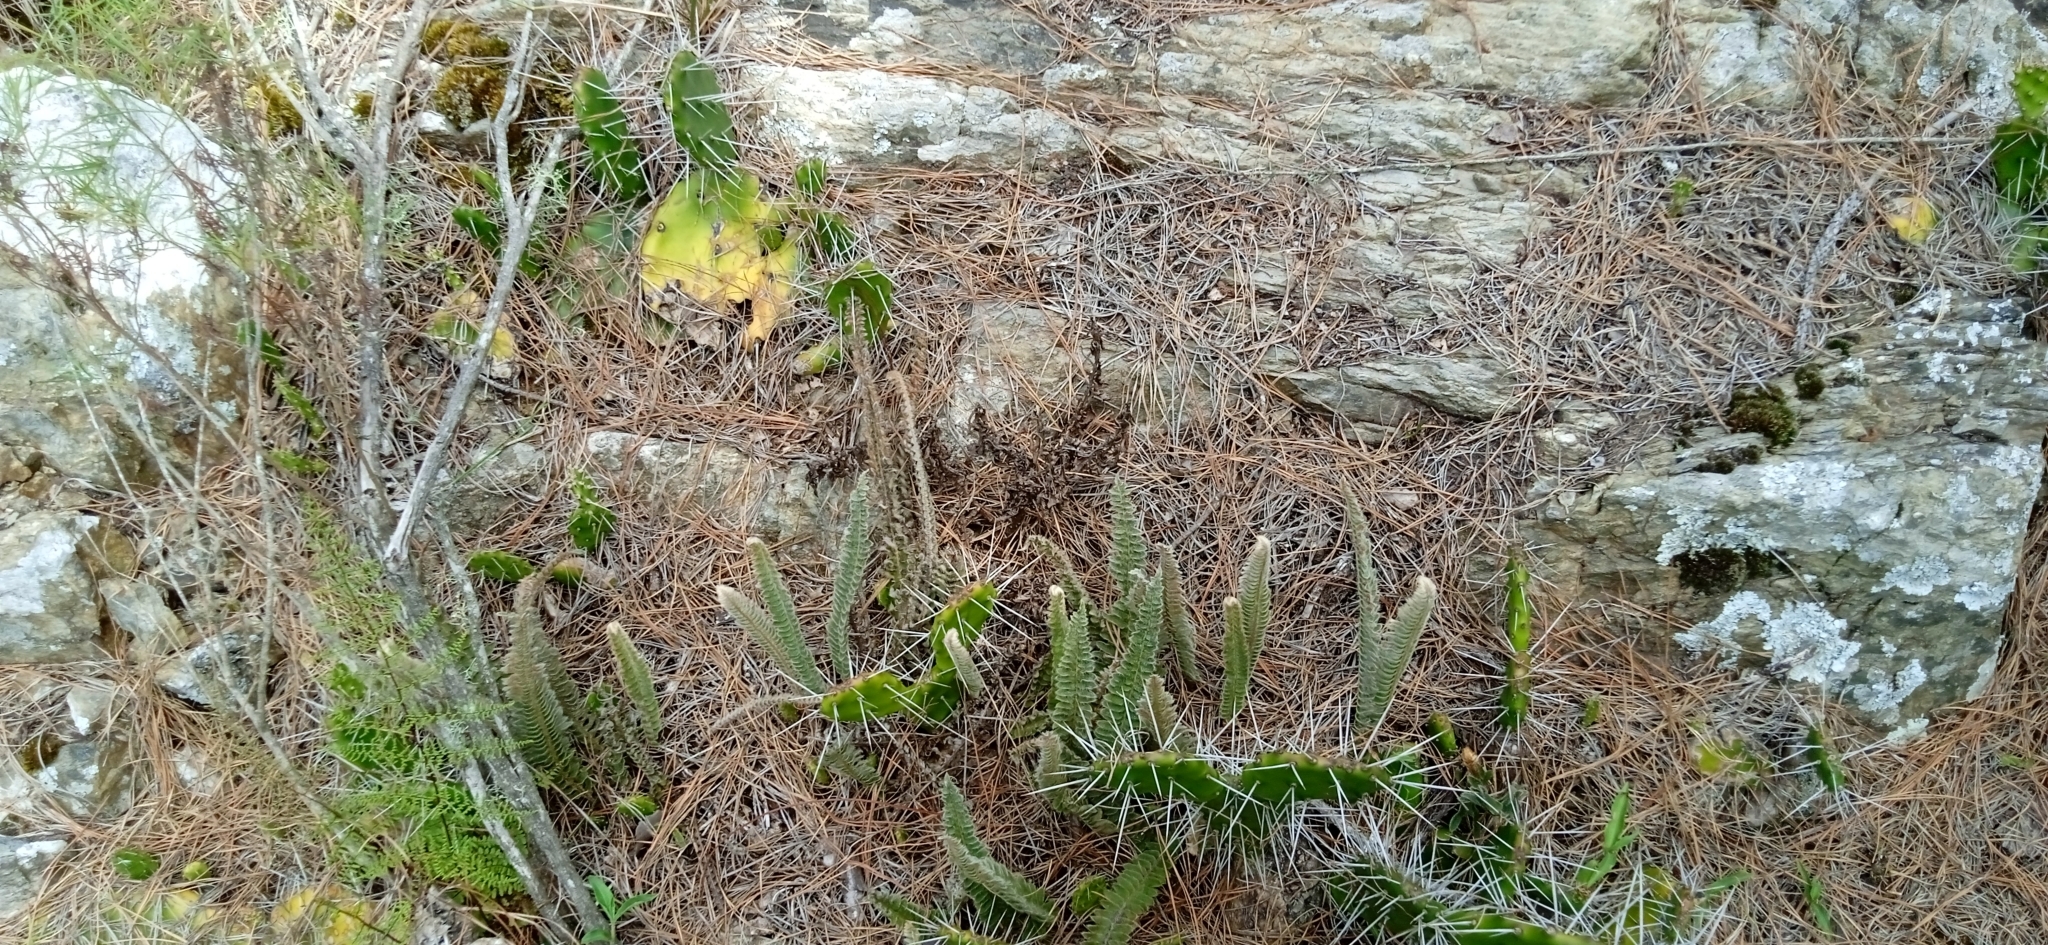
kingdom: Plantae
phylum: Tracheophyta
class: Polypodiopsida
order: Polypodiales
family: Polypodiaceae
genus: Pleopeltis
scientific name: Pleopeltis lepidopteris
